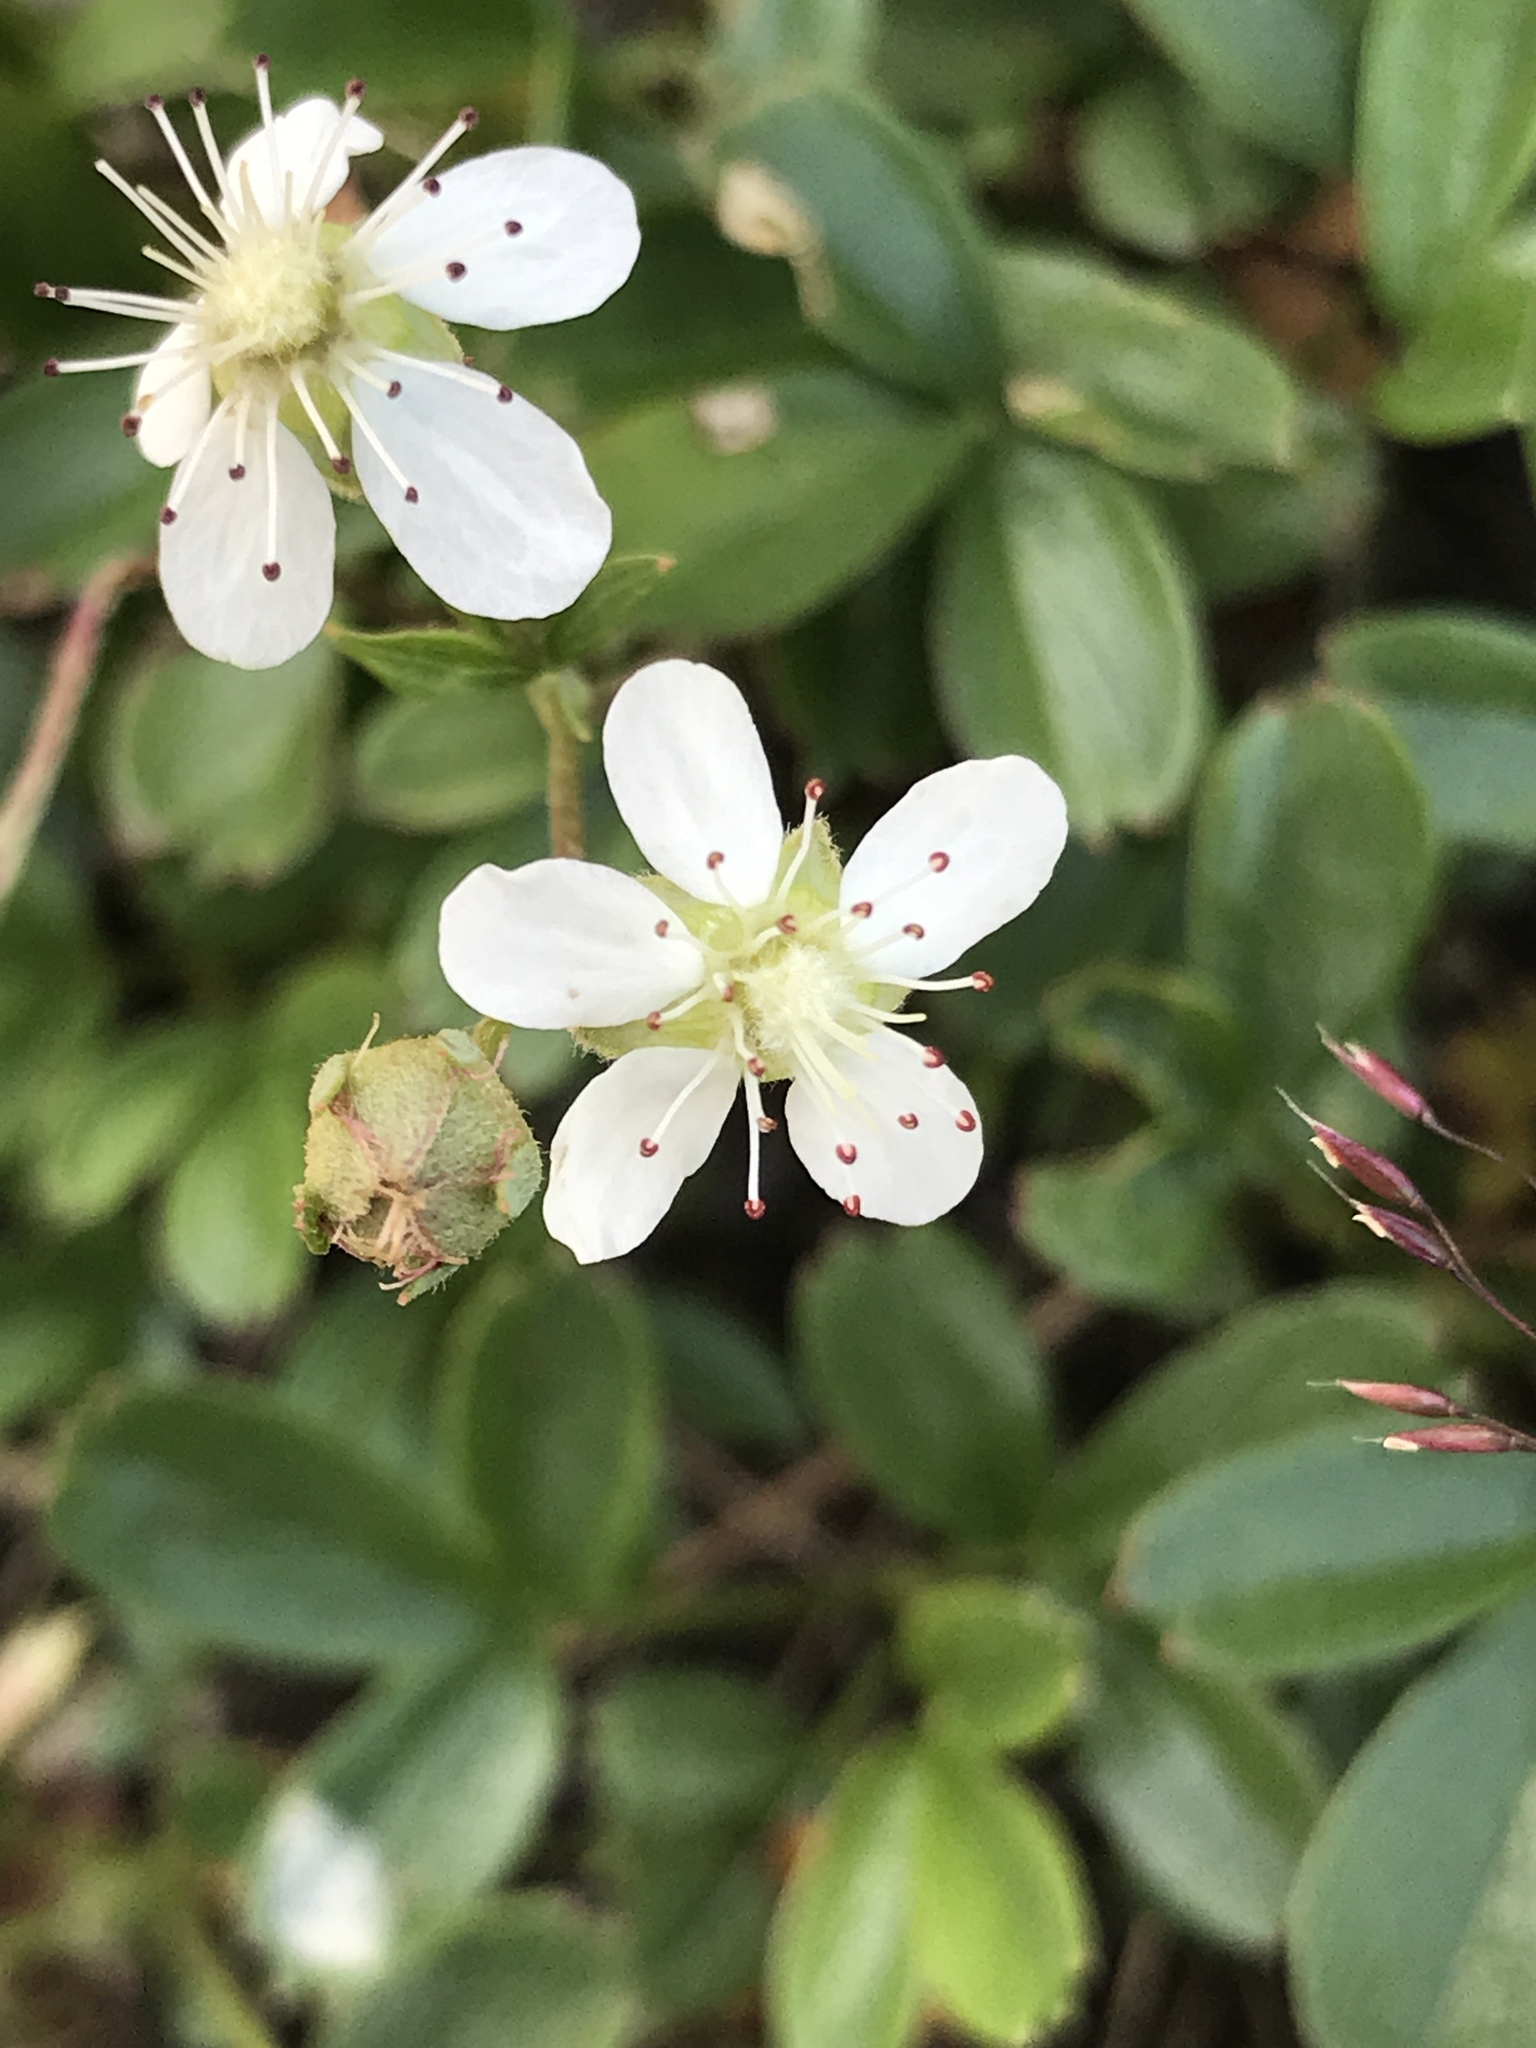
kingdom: Plantae
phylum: Tracheophyta
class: Magnoliopsida
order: Rosales
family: Rosaceae
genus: Sibbaldia
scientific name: Sibbaldia tridentata
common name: Three-toothed cinquefoil
